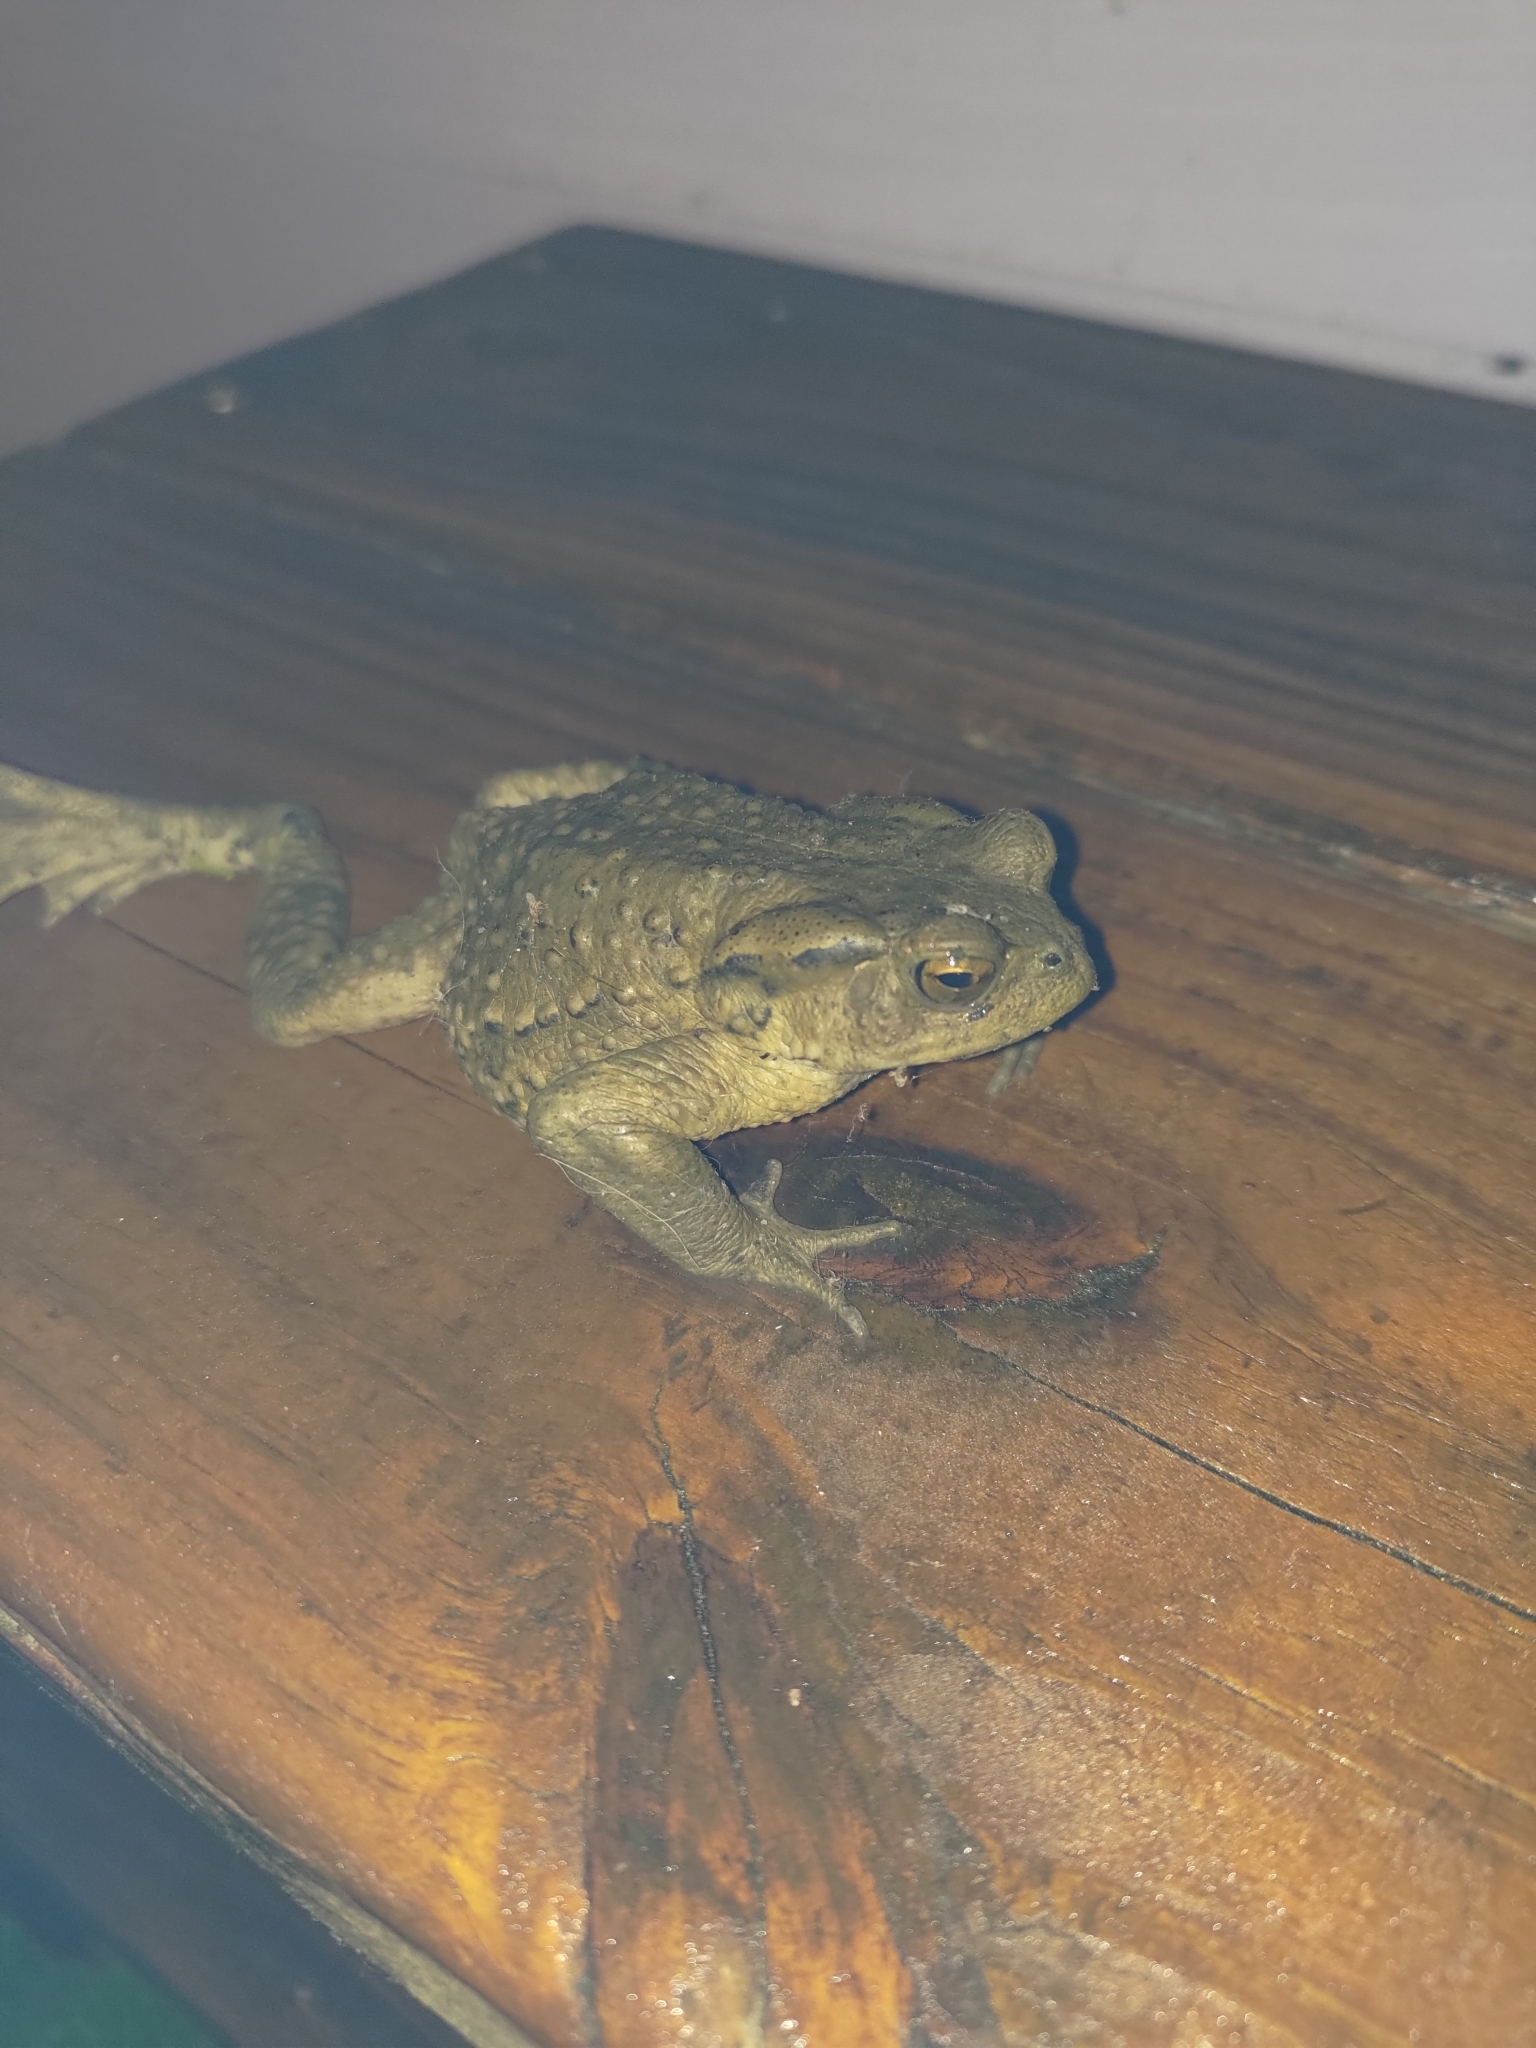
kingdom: Animalia
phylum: Chordata
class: Amphibia
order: Anura
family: Bufonidae
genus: Bufo
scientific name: Bufo bankorensis
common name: Bankor toad
